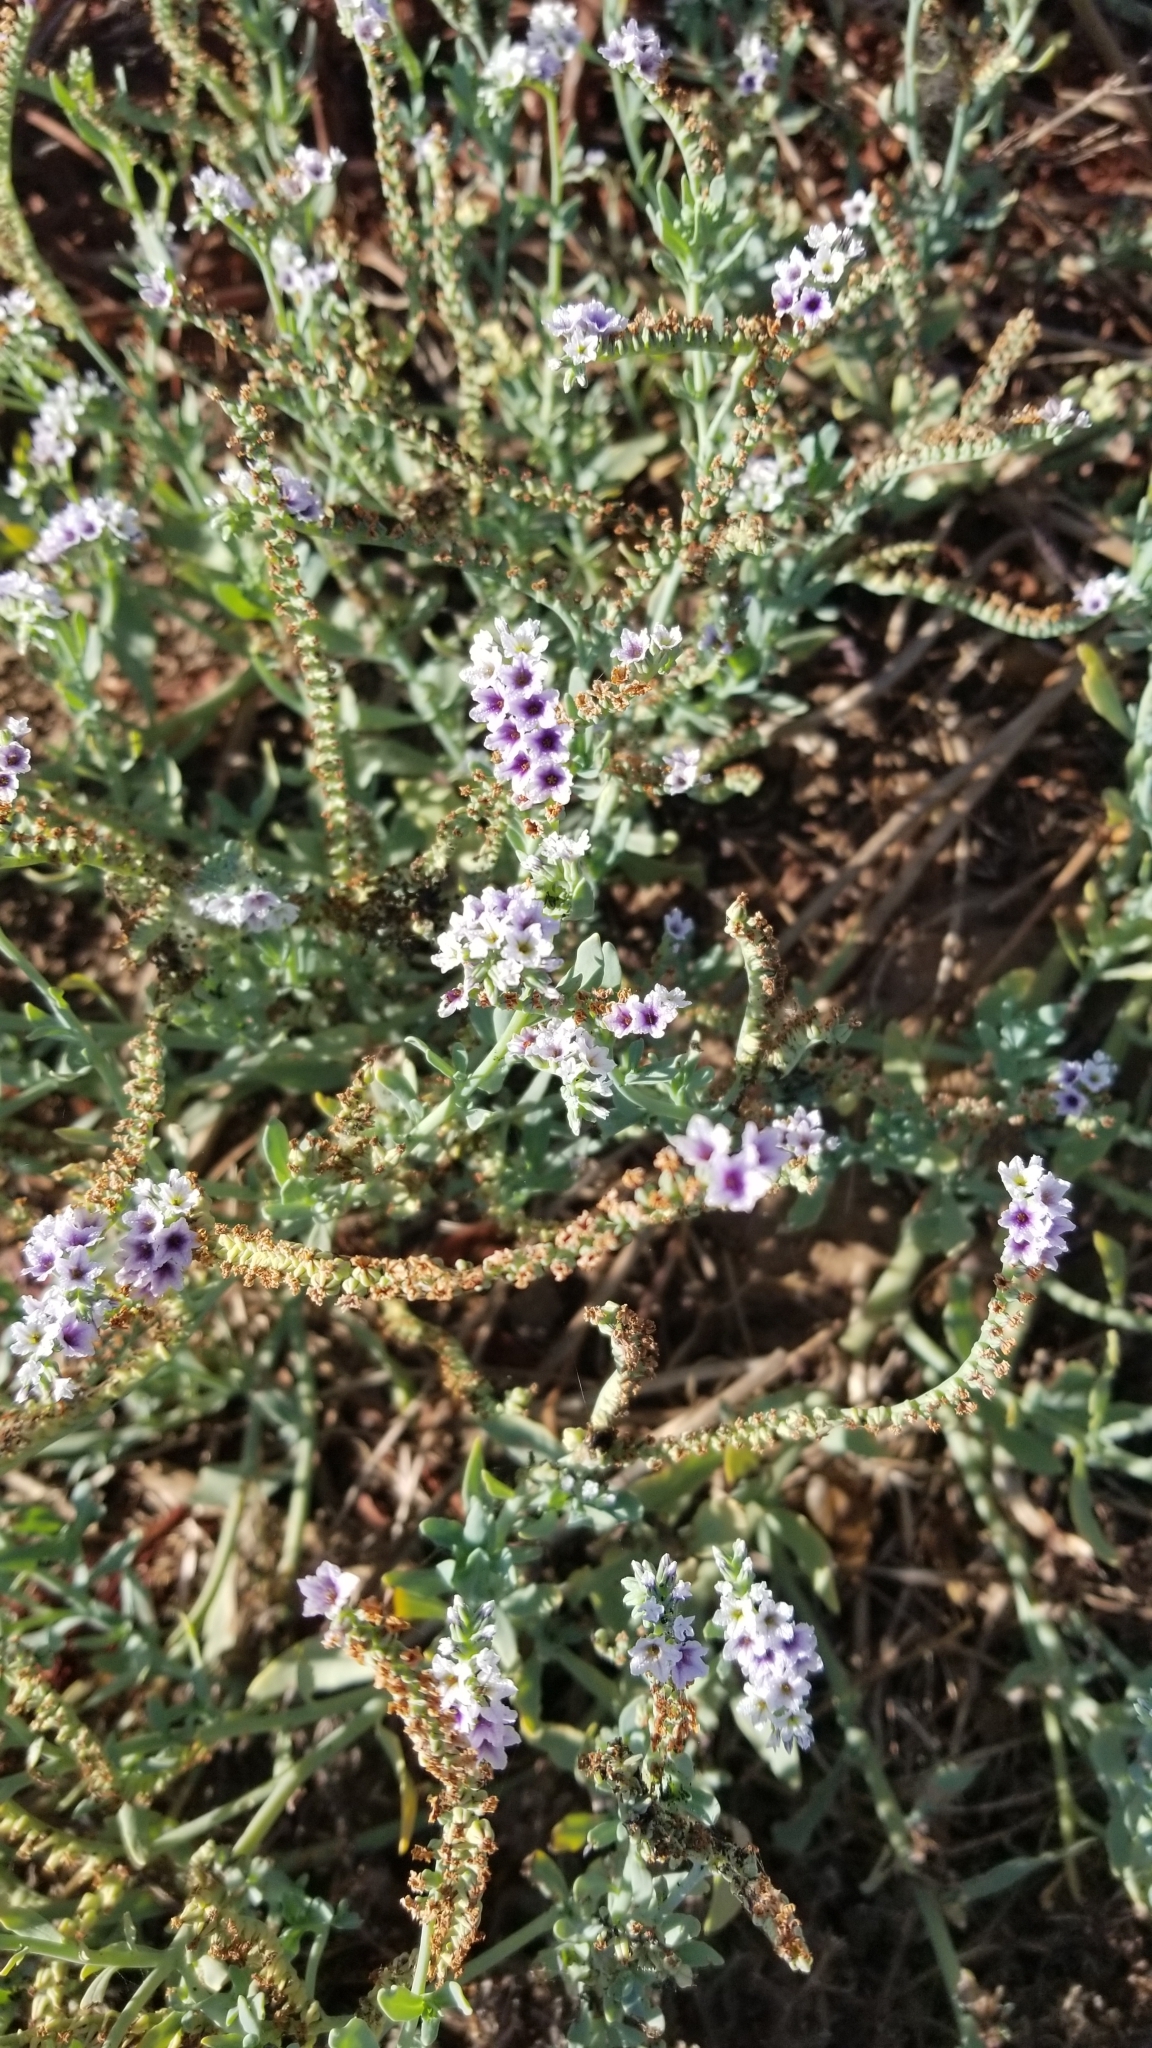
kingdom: Plantae
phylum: Tracheophyta
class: Magnoliopsida
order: Boraginales
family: Heliotropiaceae
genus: Heliotropium
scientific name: Heliotropium curassavicum
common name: Seaside heliotrope
